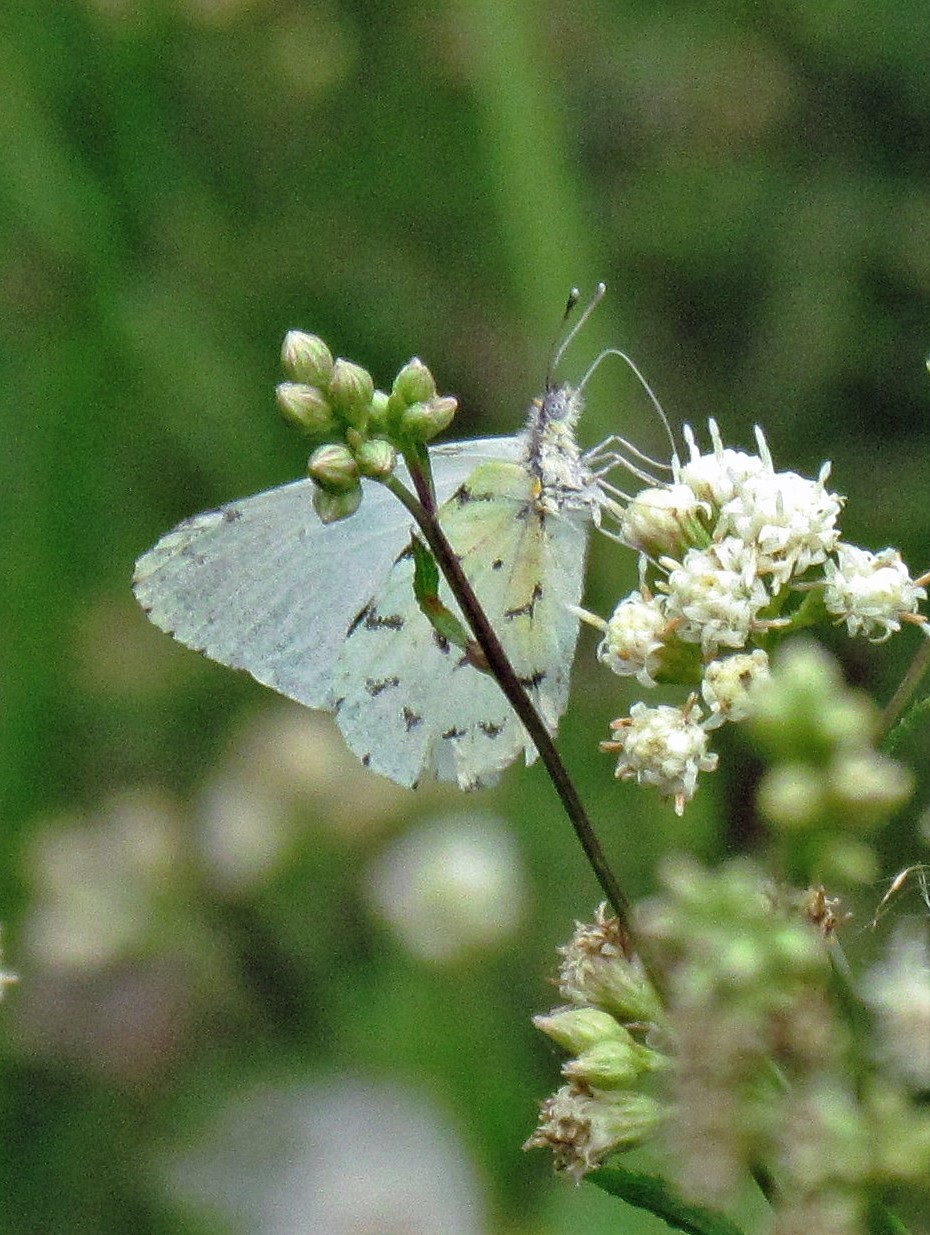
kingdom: Animalia
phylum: Arthropoda
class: Insecta
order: Lepidoptera
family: Pieridae
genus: Hesperocharis
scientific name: Hesperocharis
